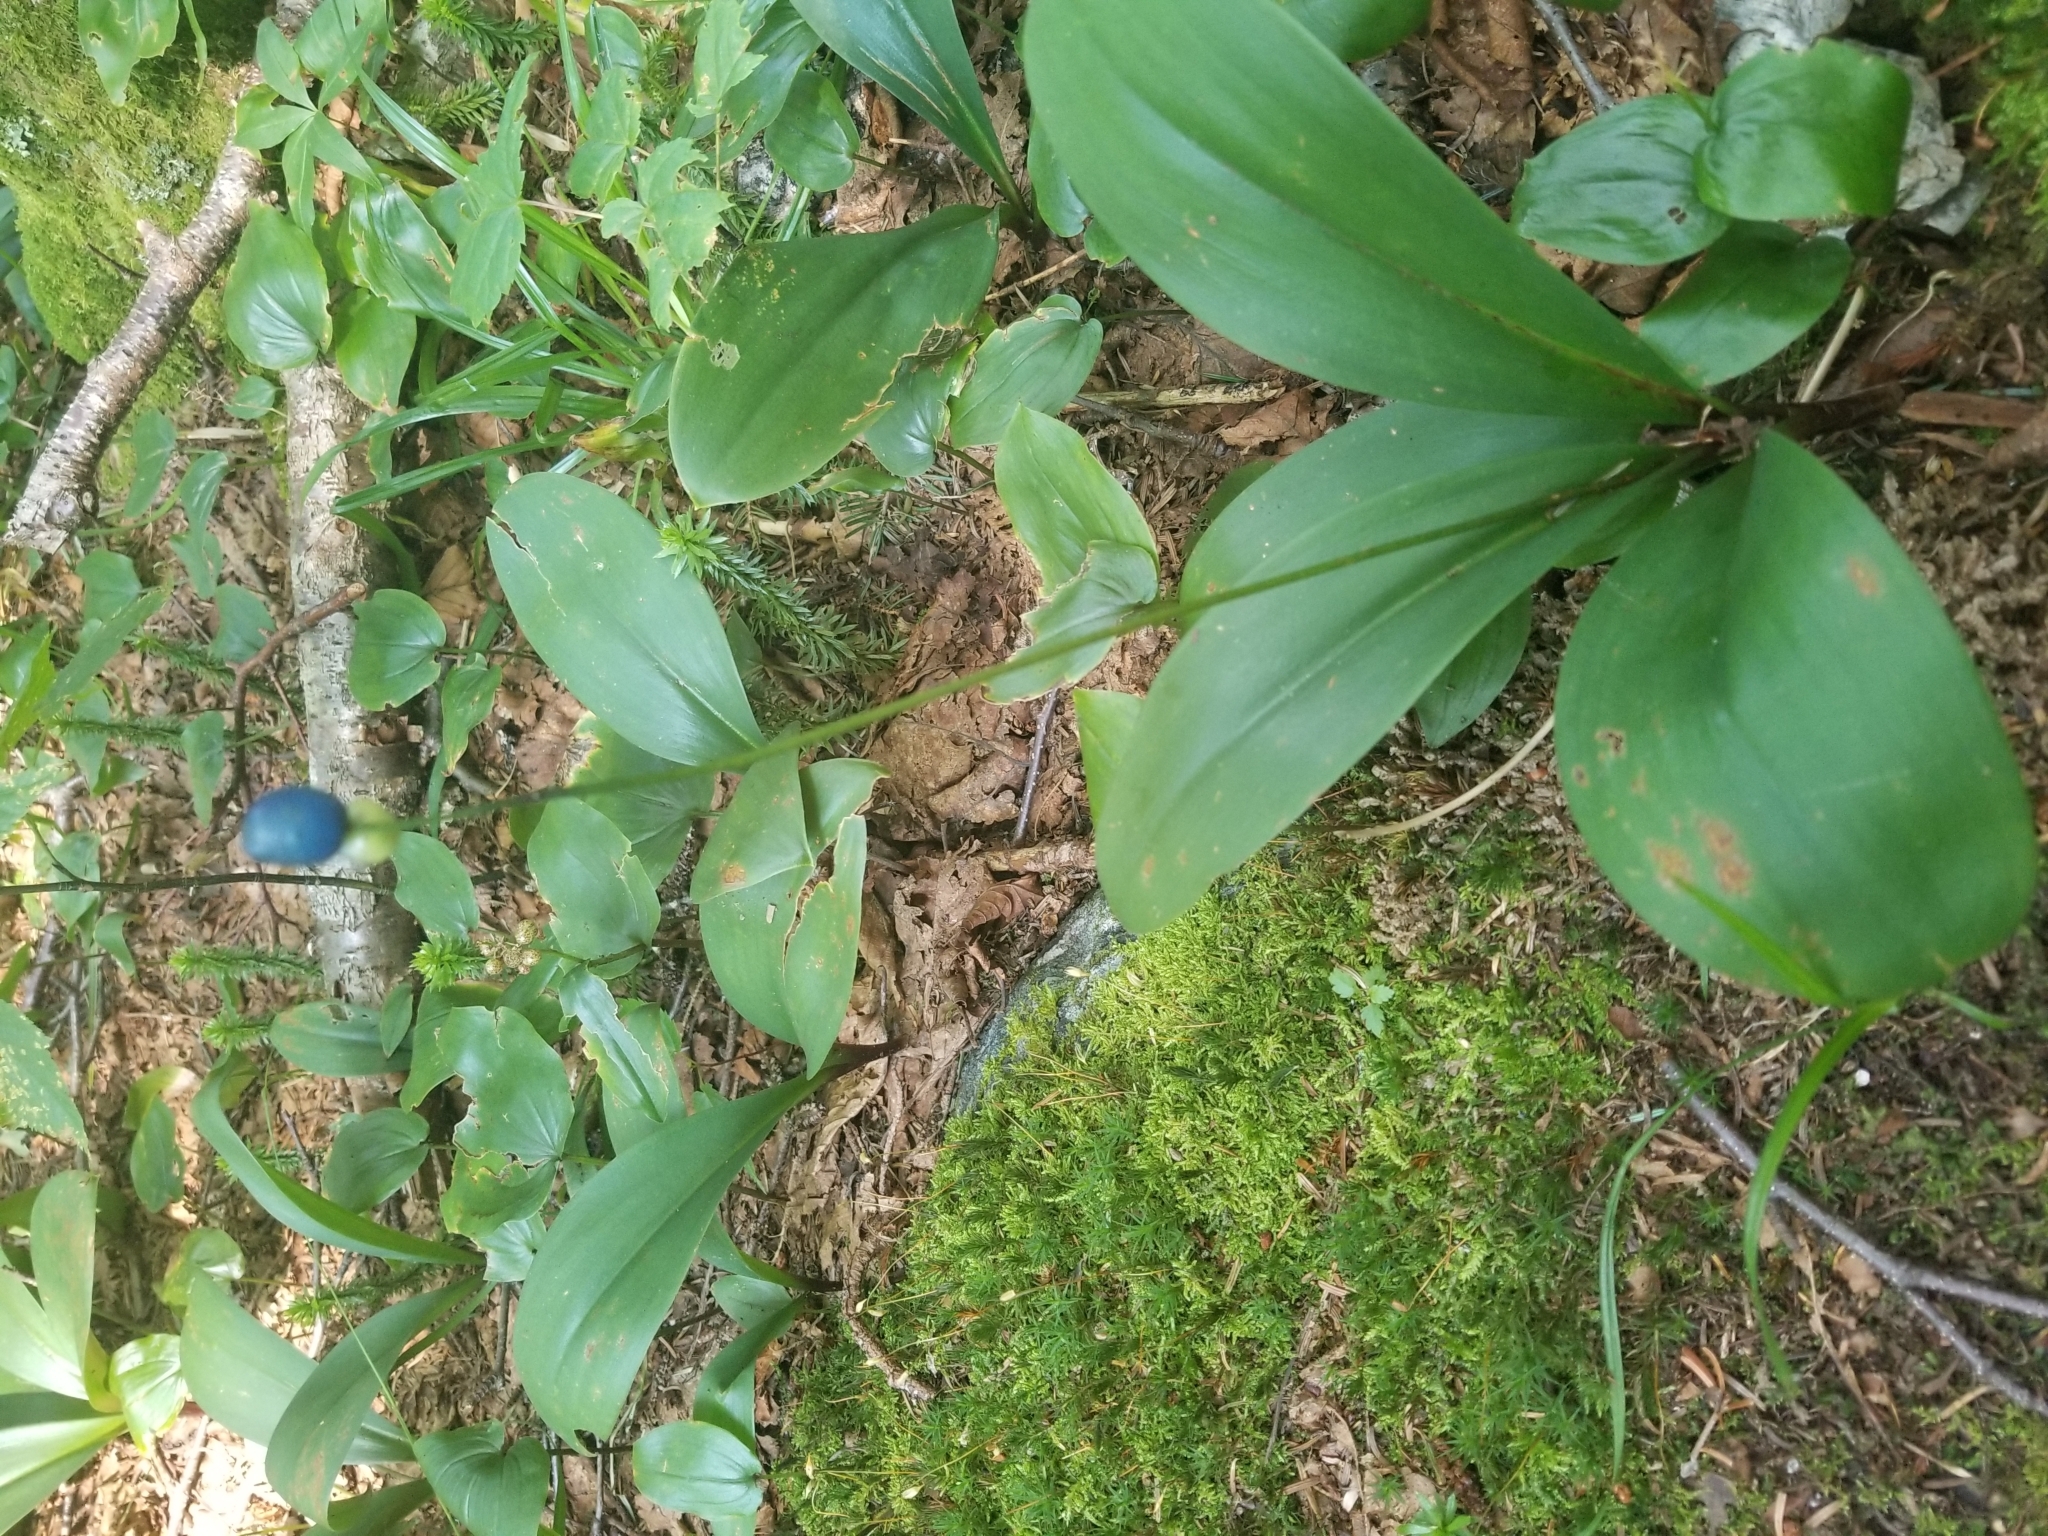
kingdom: Plantae
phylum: Tracheophyta
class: Liliopsida
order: Liliales
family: Liliaceae
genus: Clintonia
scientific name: Clintonia borealis
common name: Yellow clintonia
